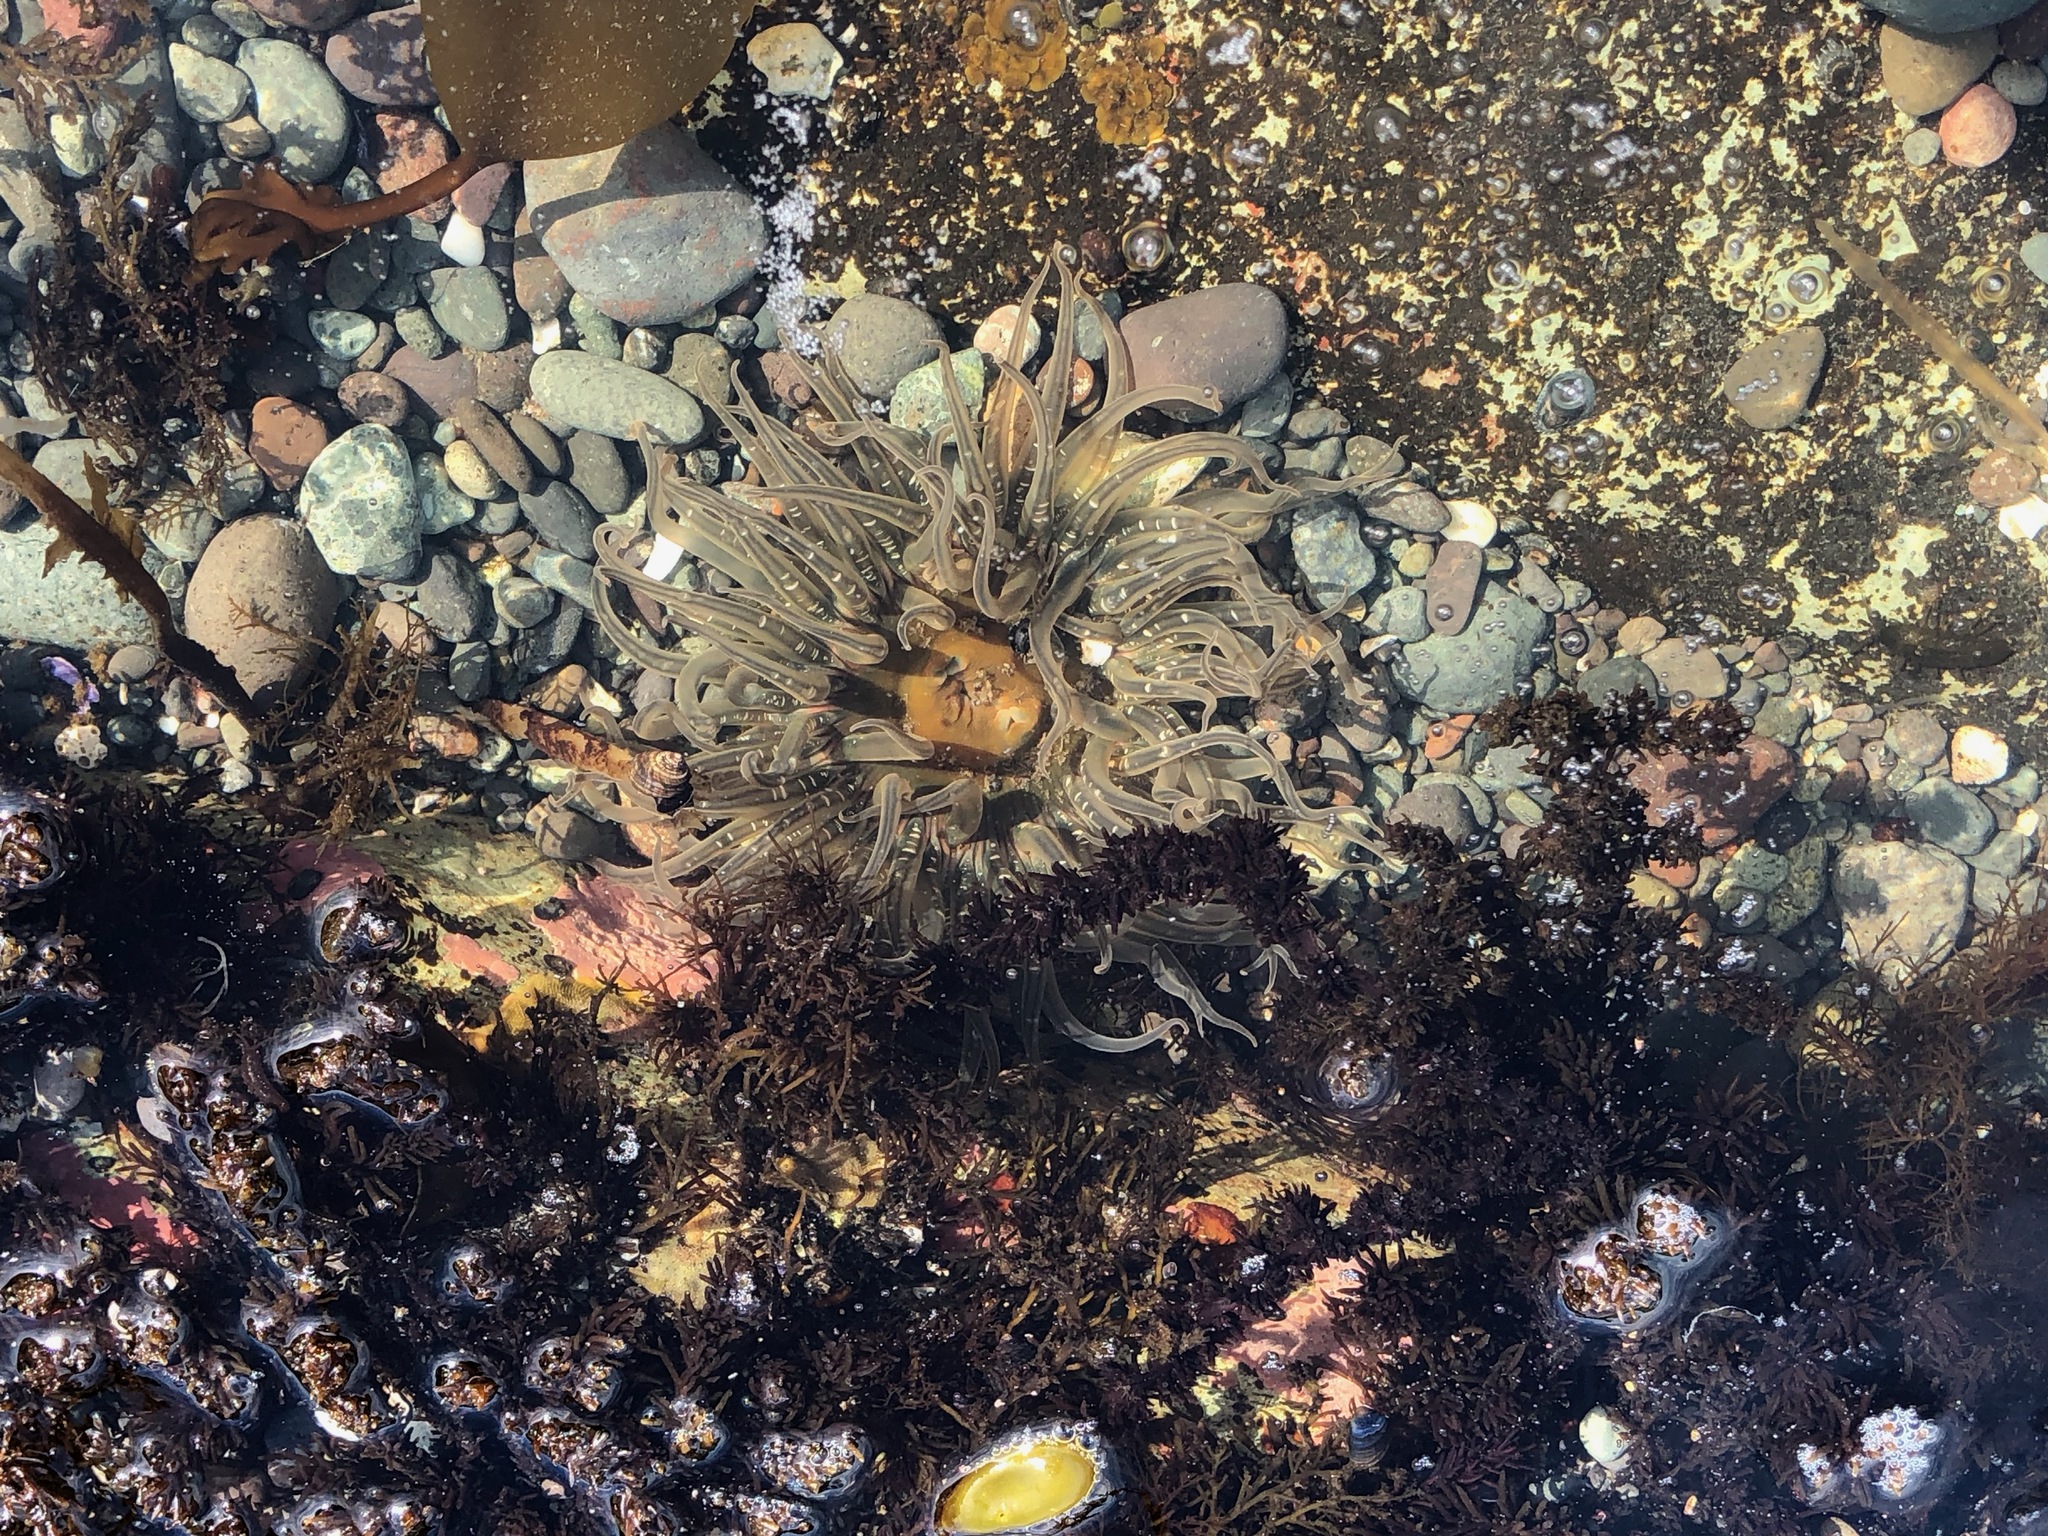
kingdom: Animalia
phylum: Cnidaria
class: Anthozoa
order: Actiniaria
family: Actiniidae
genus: Anthopleura
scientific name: Anthopleura artemisia
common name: Buried sea anemone
